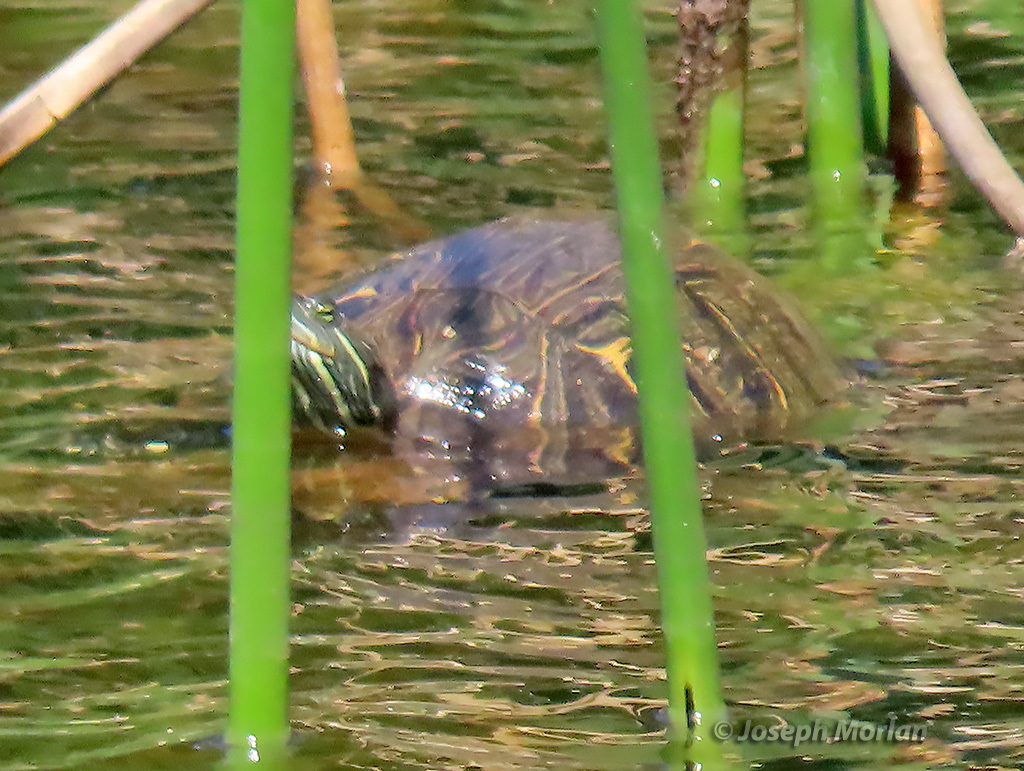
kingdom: Animalia
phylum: Chordata
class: Testudines
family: Emydidae
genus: Trachemys
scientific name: Trachemys scripta
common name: Slider
